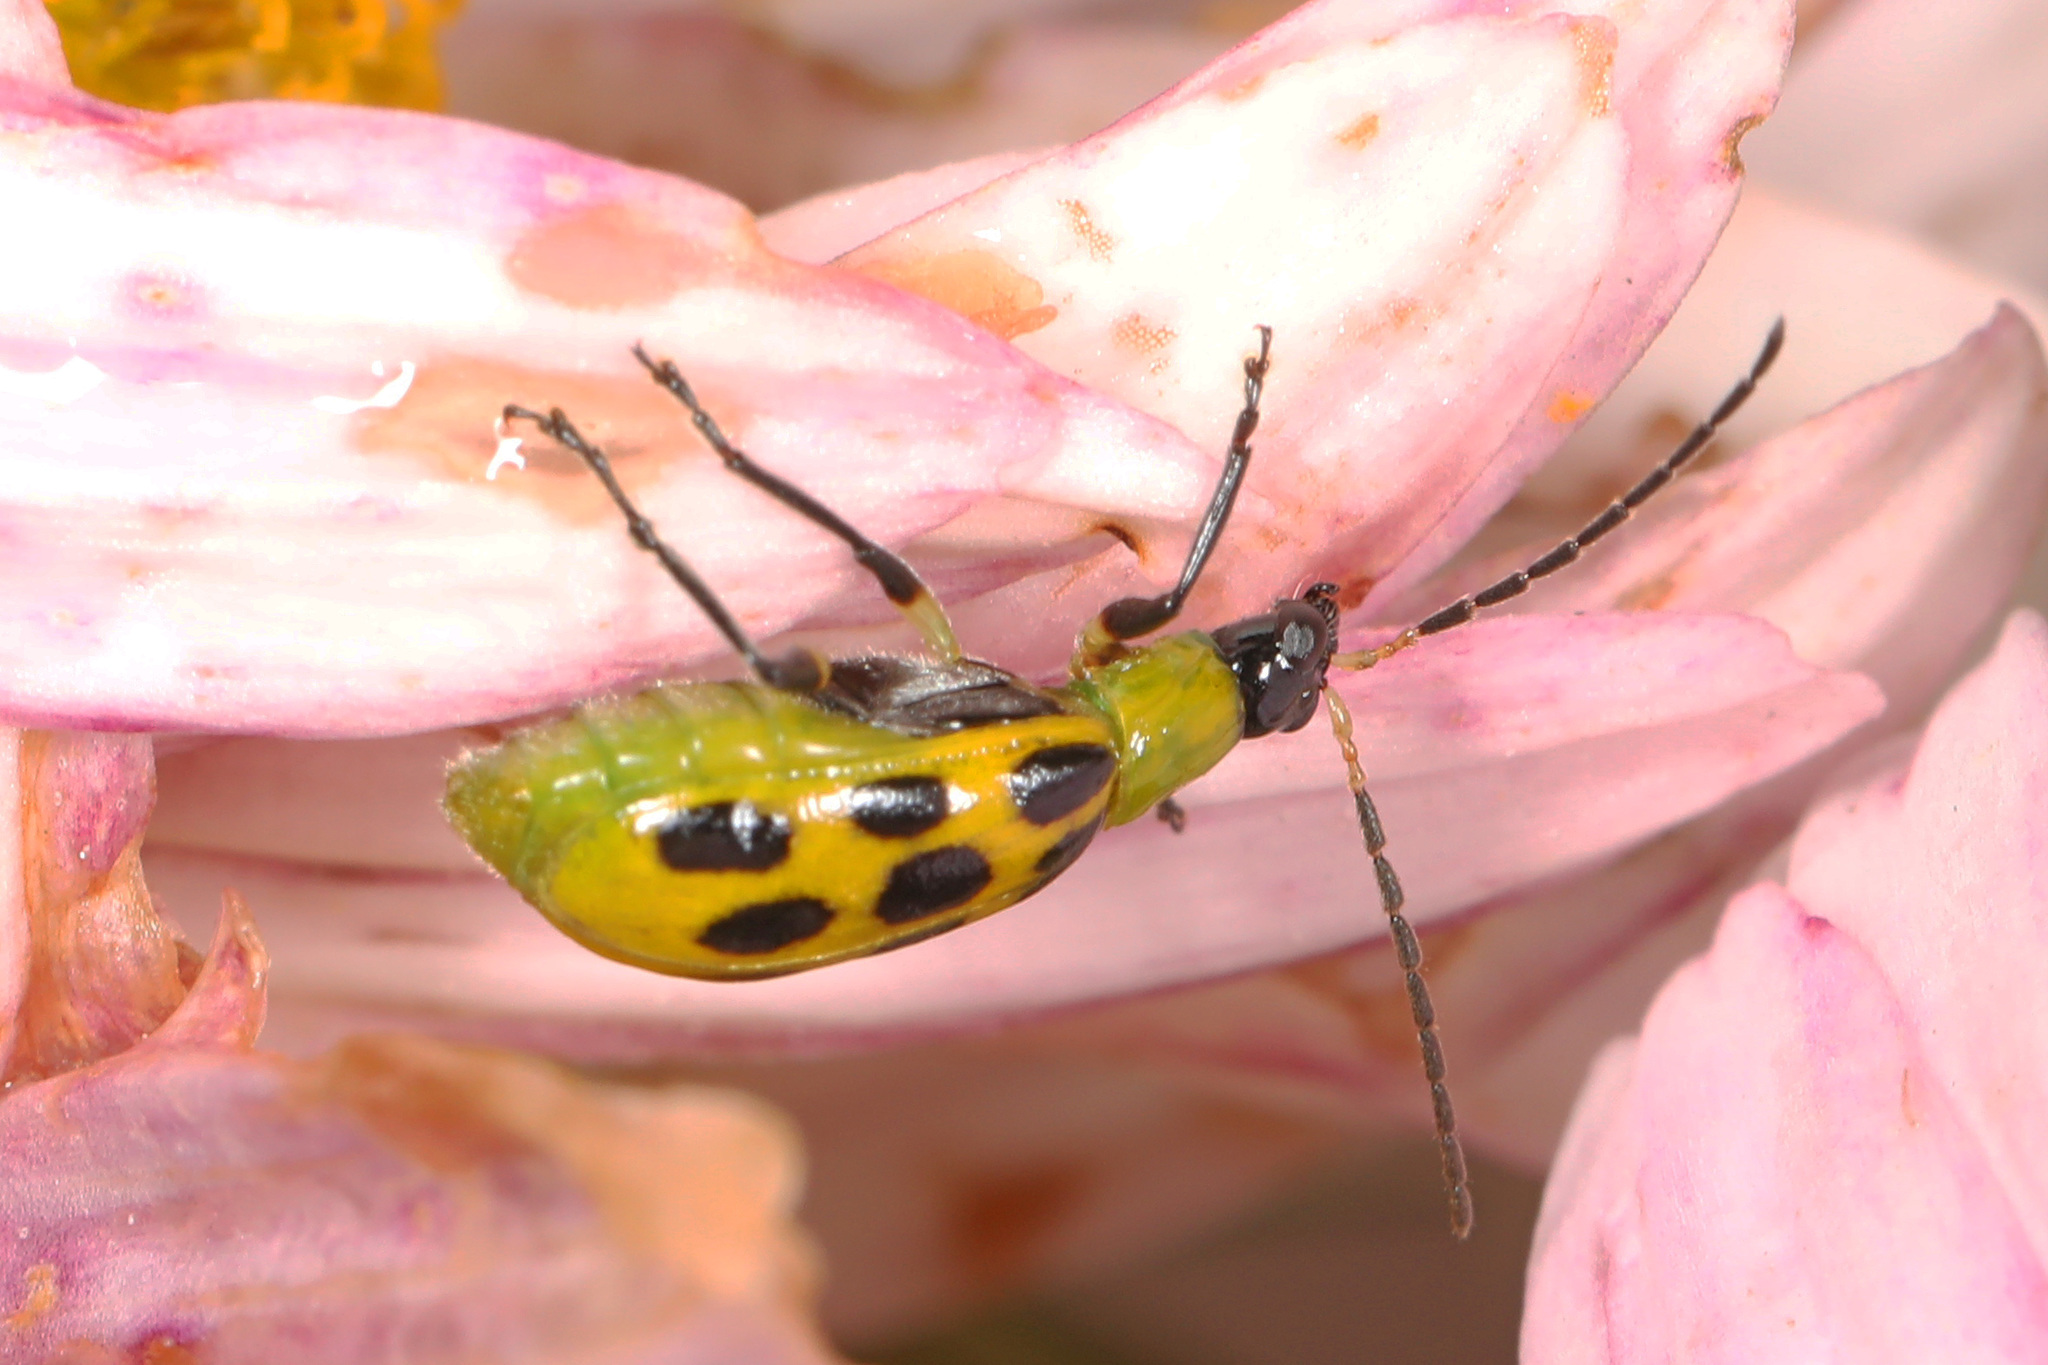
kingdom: Animalia
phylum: Arthropoda
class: Insecta
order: Coleoptera
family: Chrysomelidae
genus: Diabrotica
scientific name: Diabrotica undecimpunctata
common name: Spotted cucumber beetle
